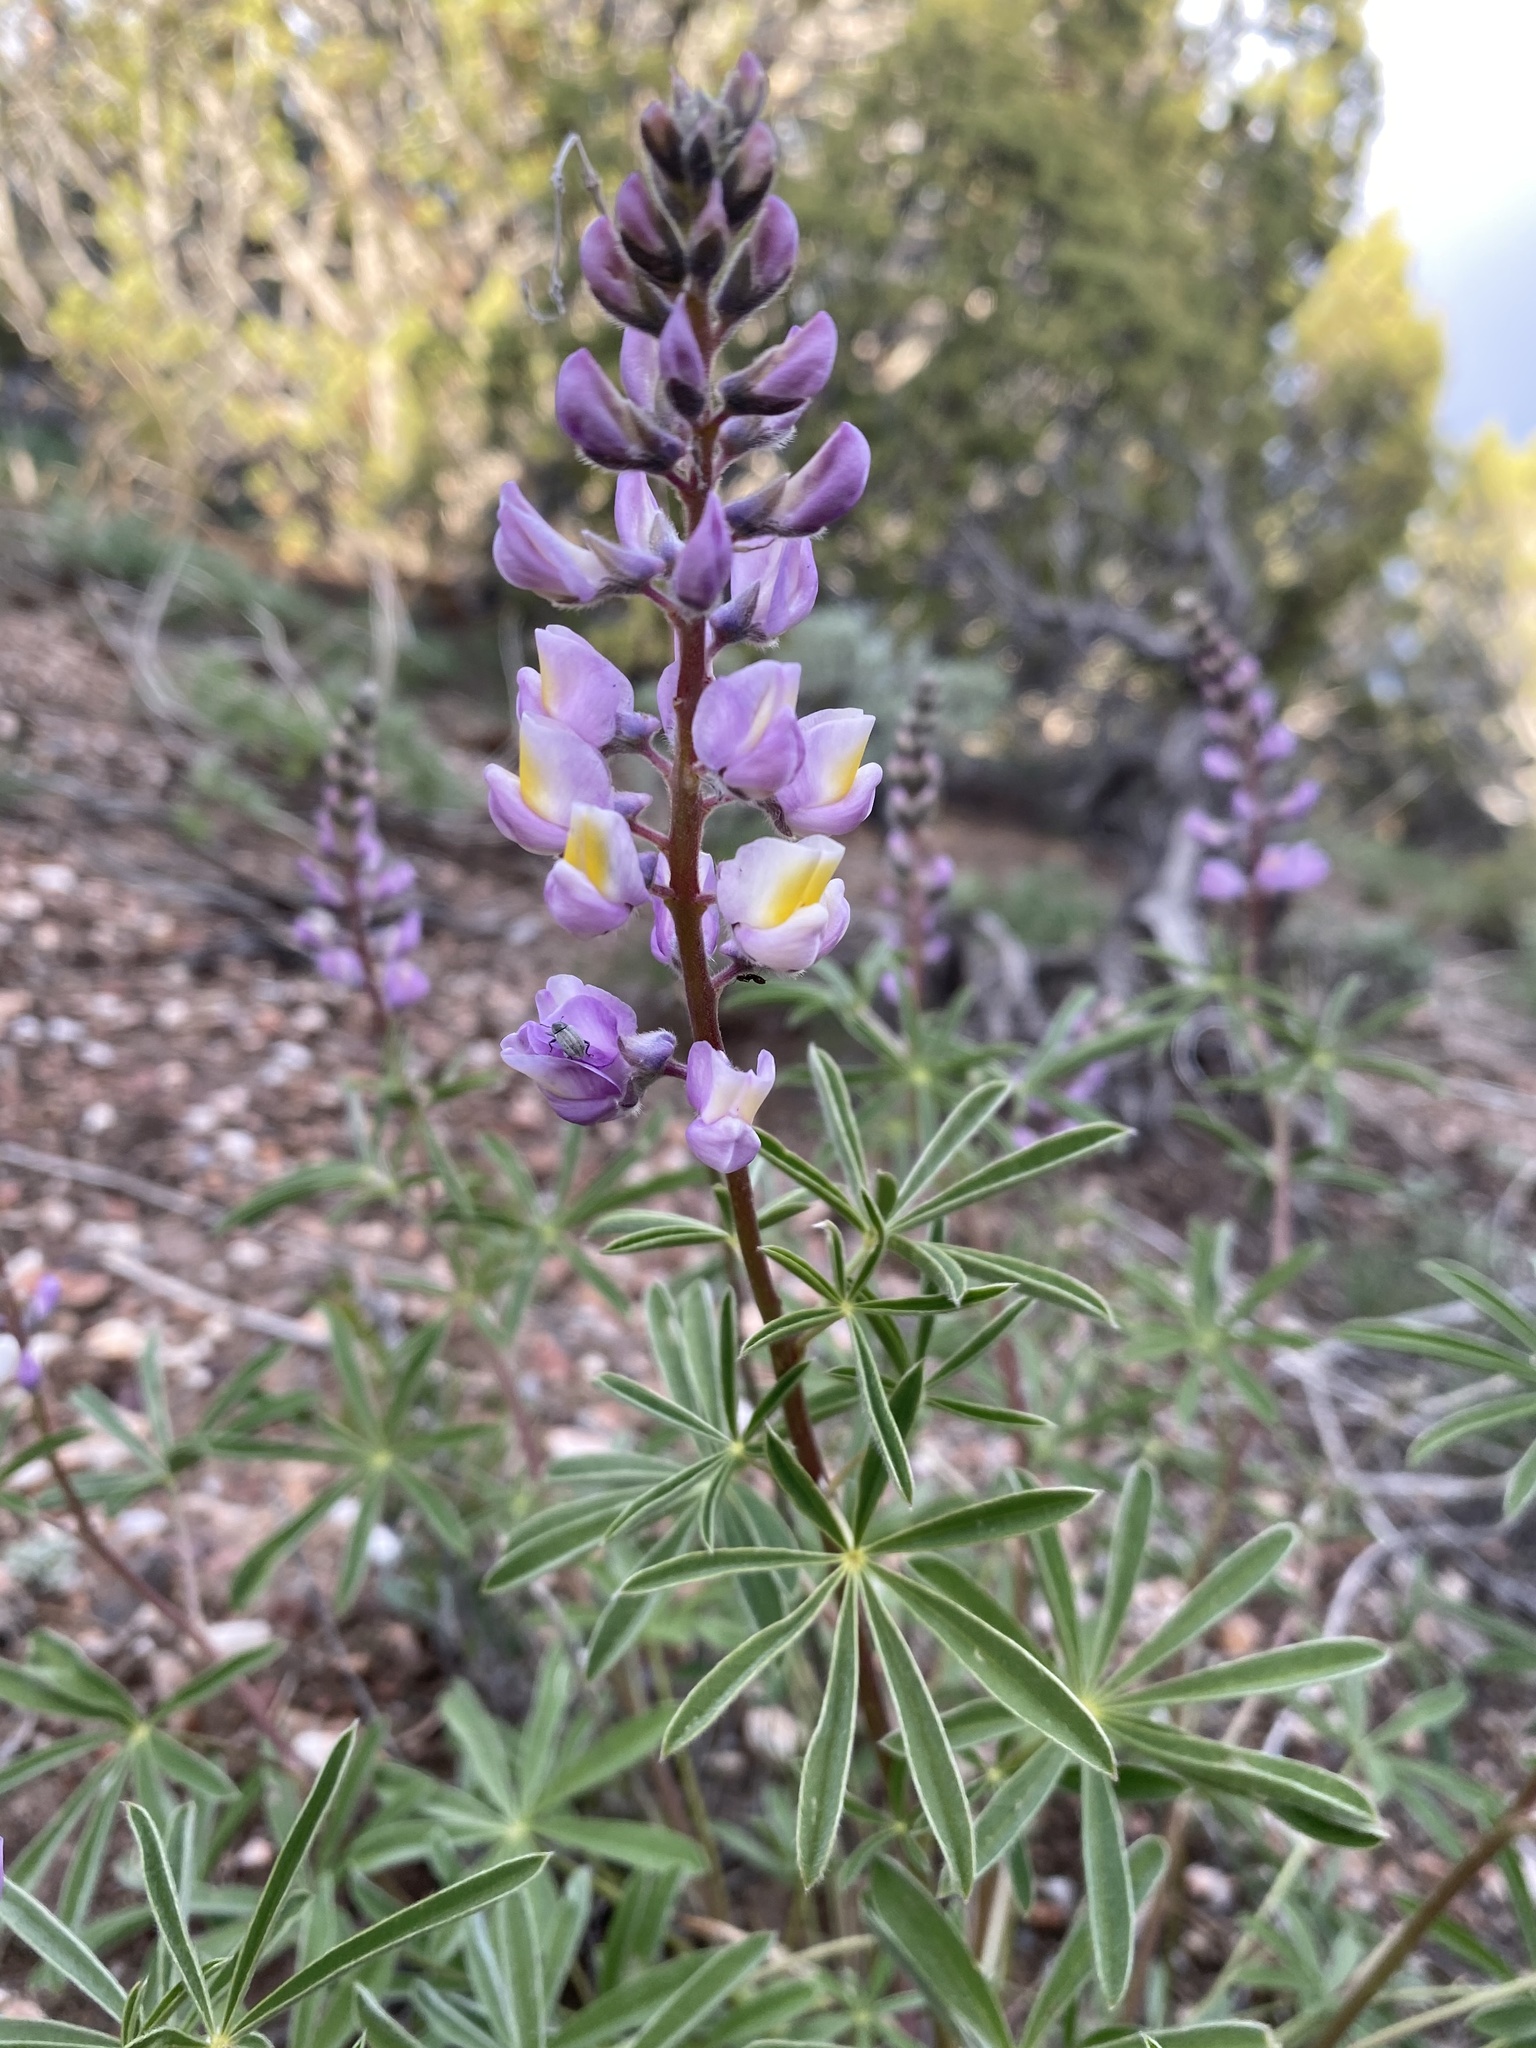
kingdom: Plantae
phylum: Tracheophyta
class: Magnoliopsida
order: Fabales
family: Fabaceae
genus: Lupinus
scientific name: Lupinus arbustus
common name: Montana lupine
